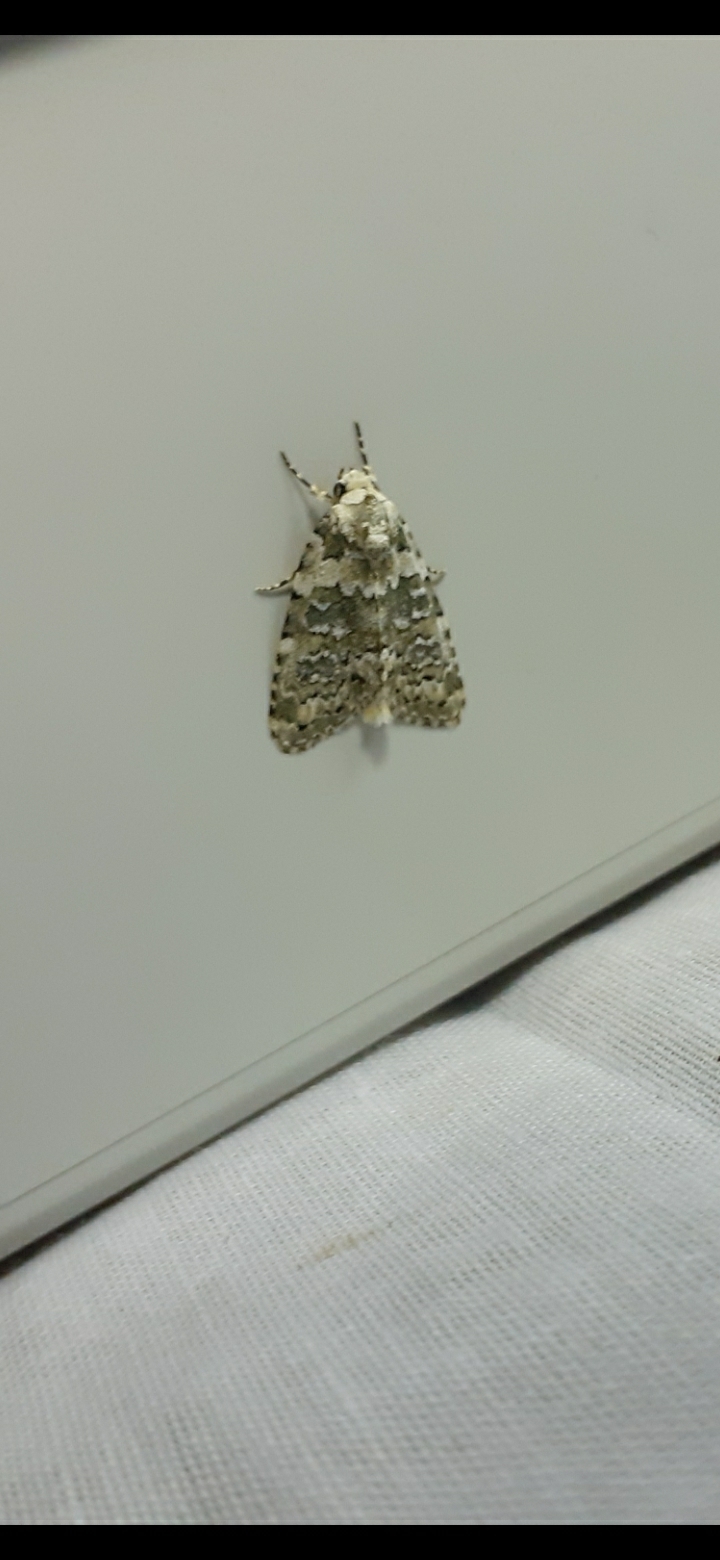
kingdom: Animalia
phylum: Arthropoda
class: Insecta
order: Lepidoptera
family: Noctuidae
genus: Bryophila
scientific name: Bryophila domestica
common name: Marbled beauty
